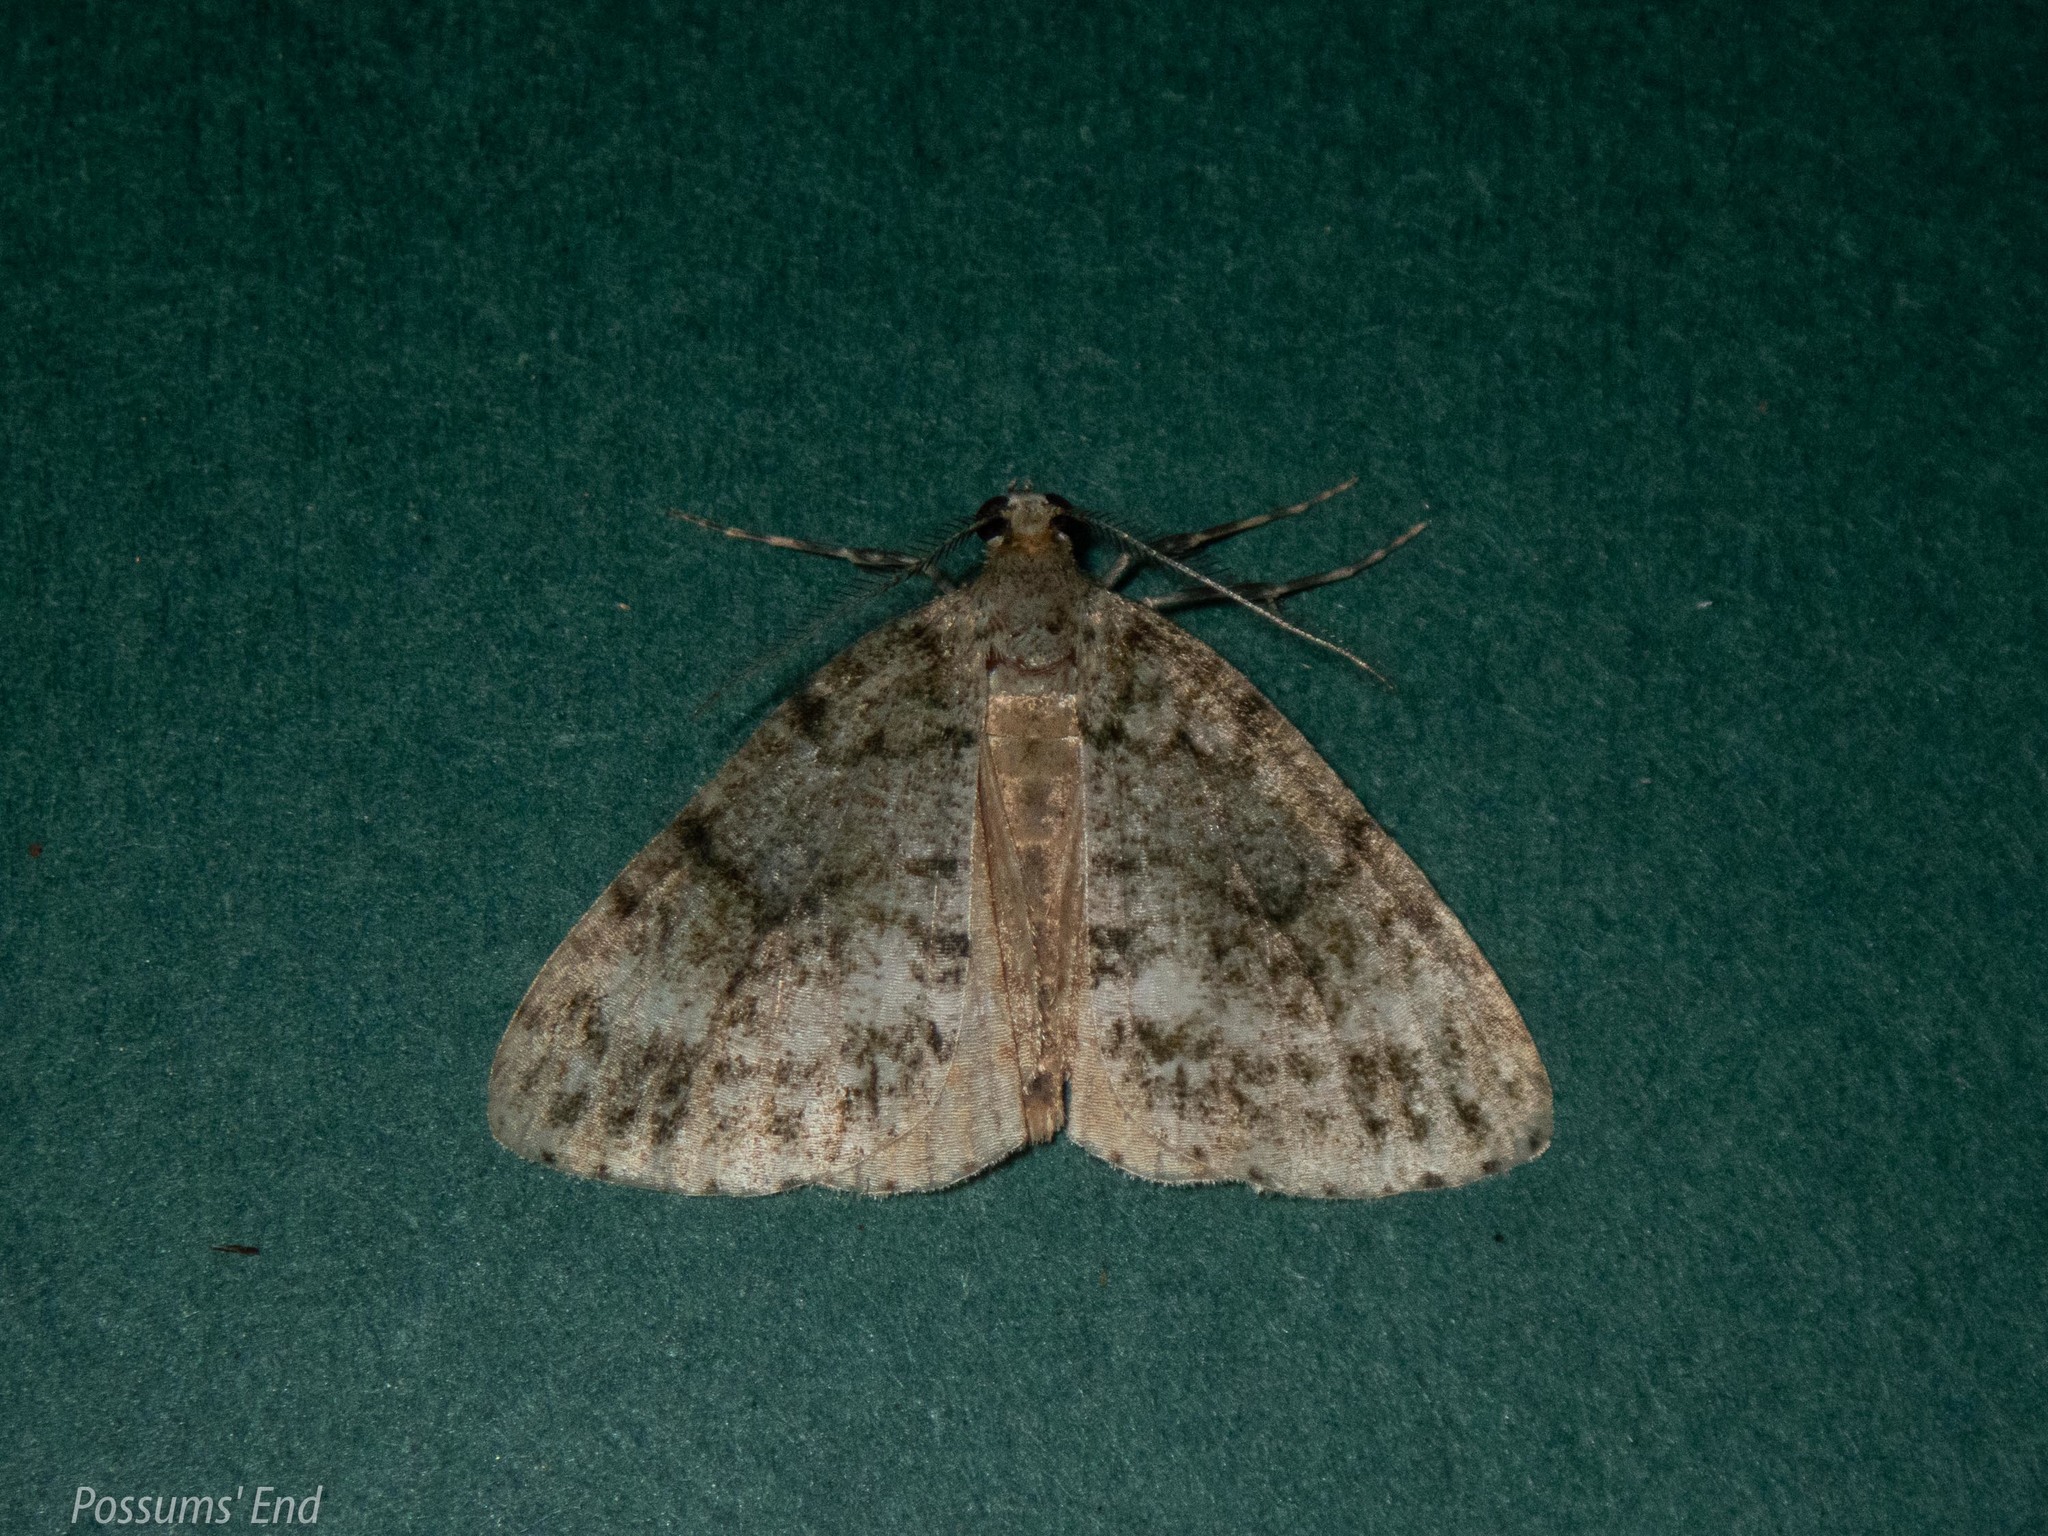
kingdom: Animalia
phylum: Arthropoda
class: Insecta
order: Lepidoptera
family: Geometridae
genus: Pseudocoremia
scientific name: Pseudocoremia indistincta
